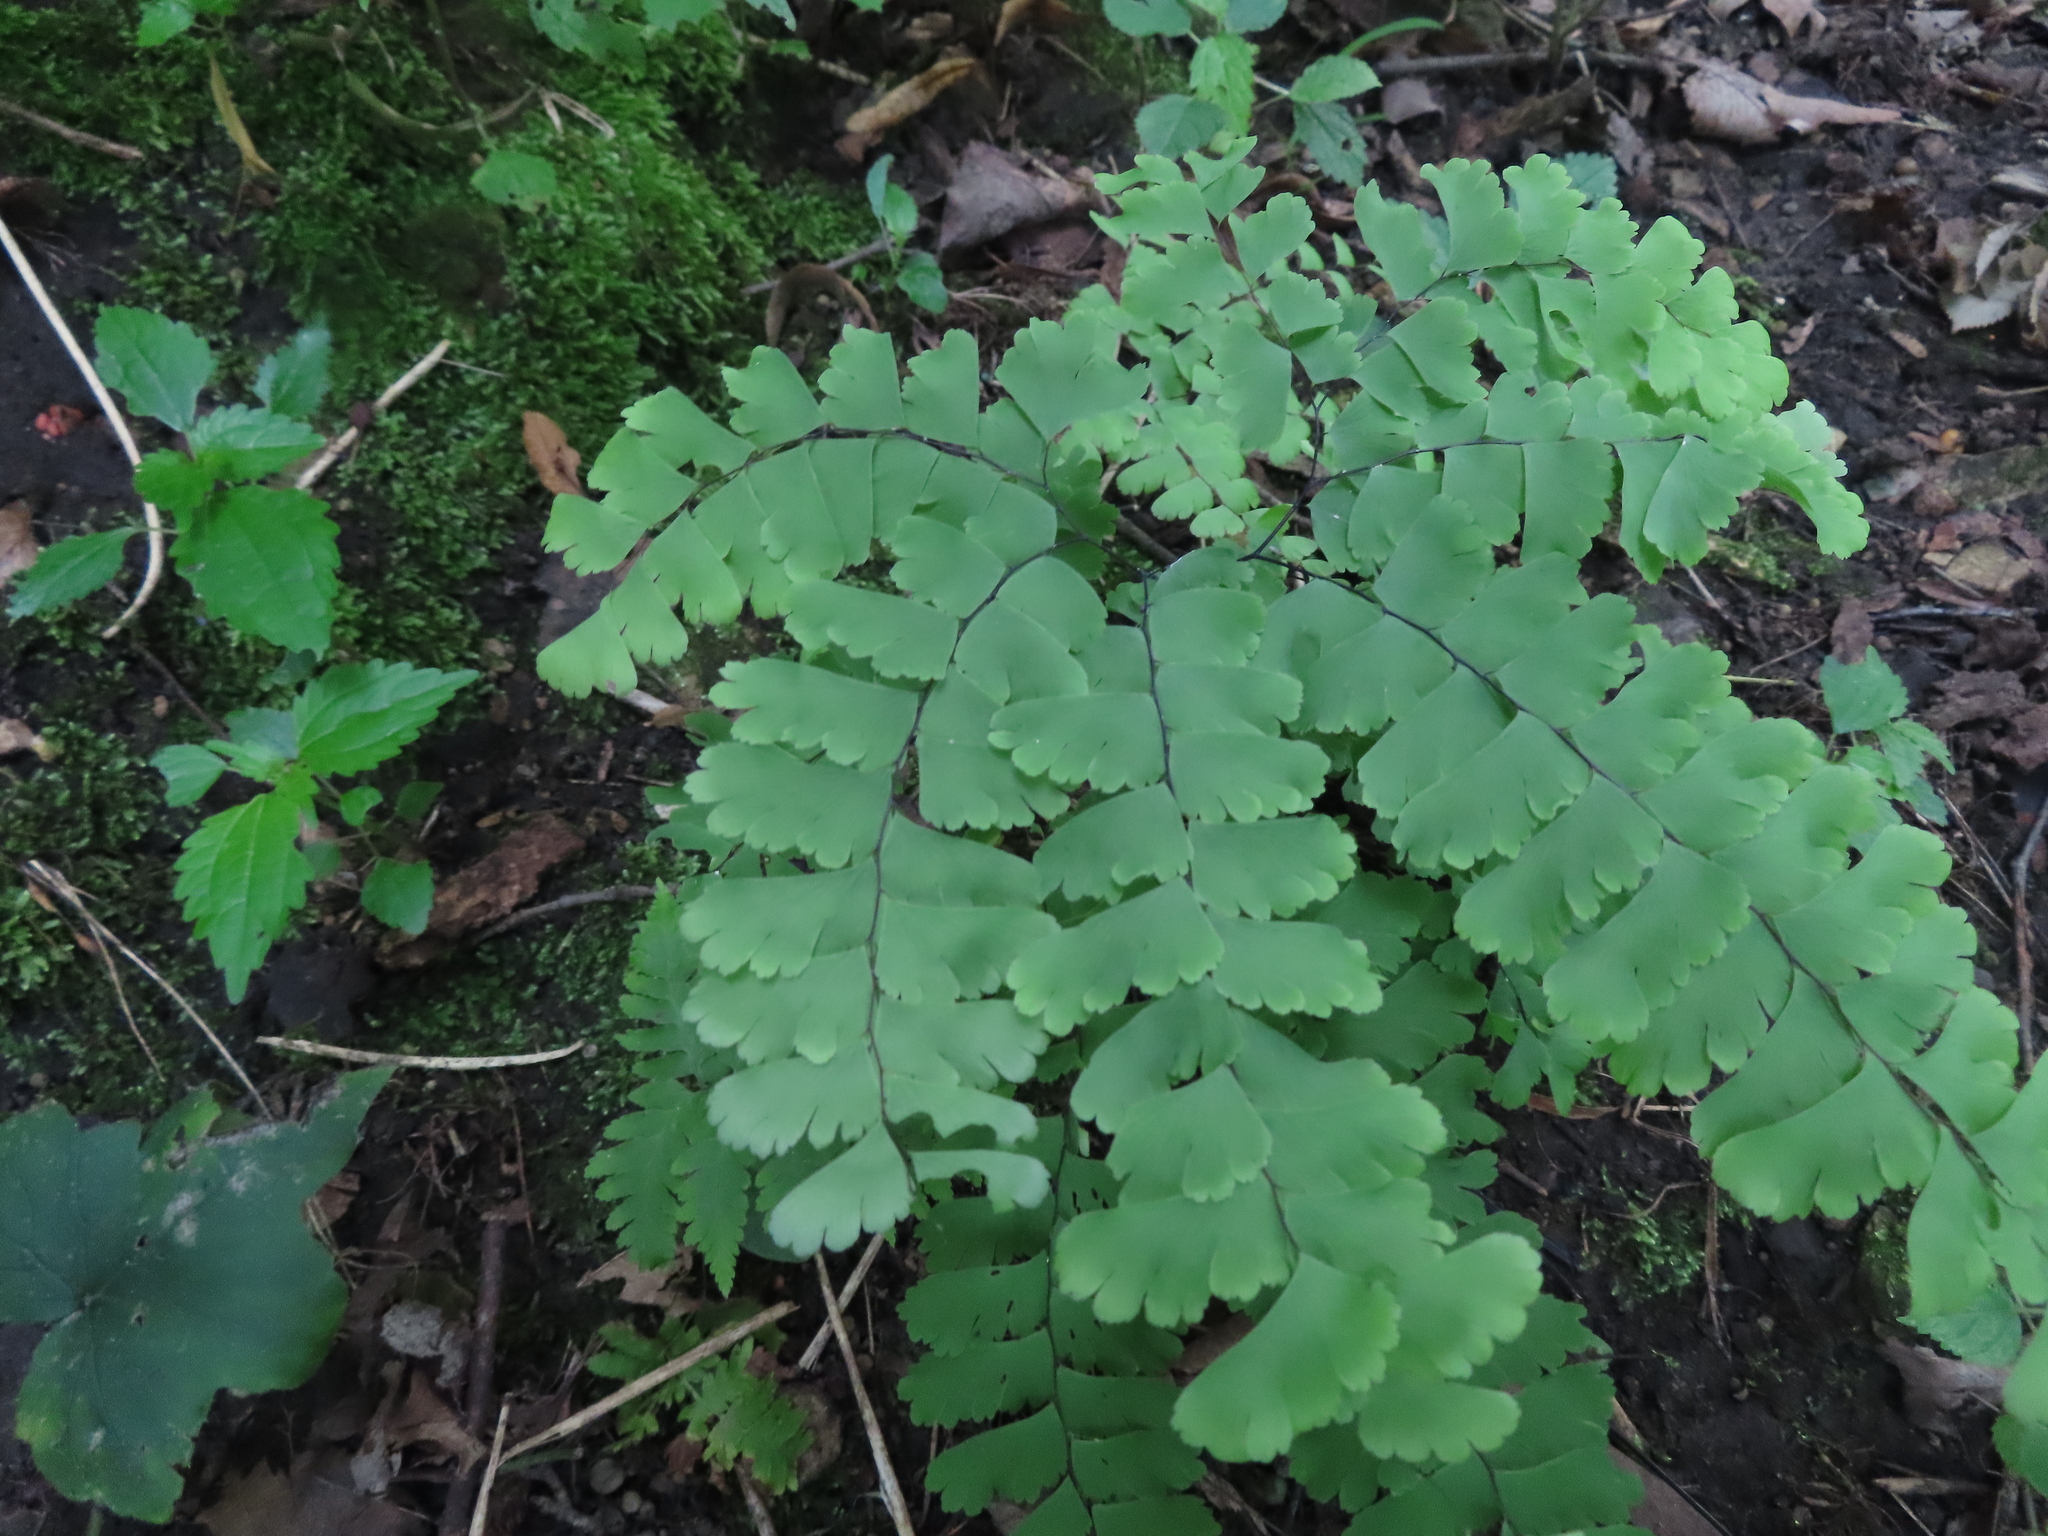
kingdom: Plantae
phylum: Tracheophyta
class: Polypodiopsida
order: Polypodiales
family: Pteridaceae
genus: Adiantum
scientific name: Adiantum pedatum
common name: Five-finger fern
